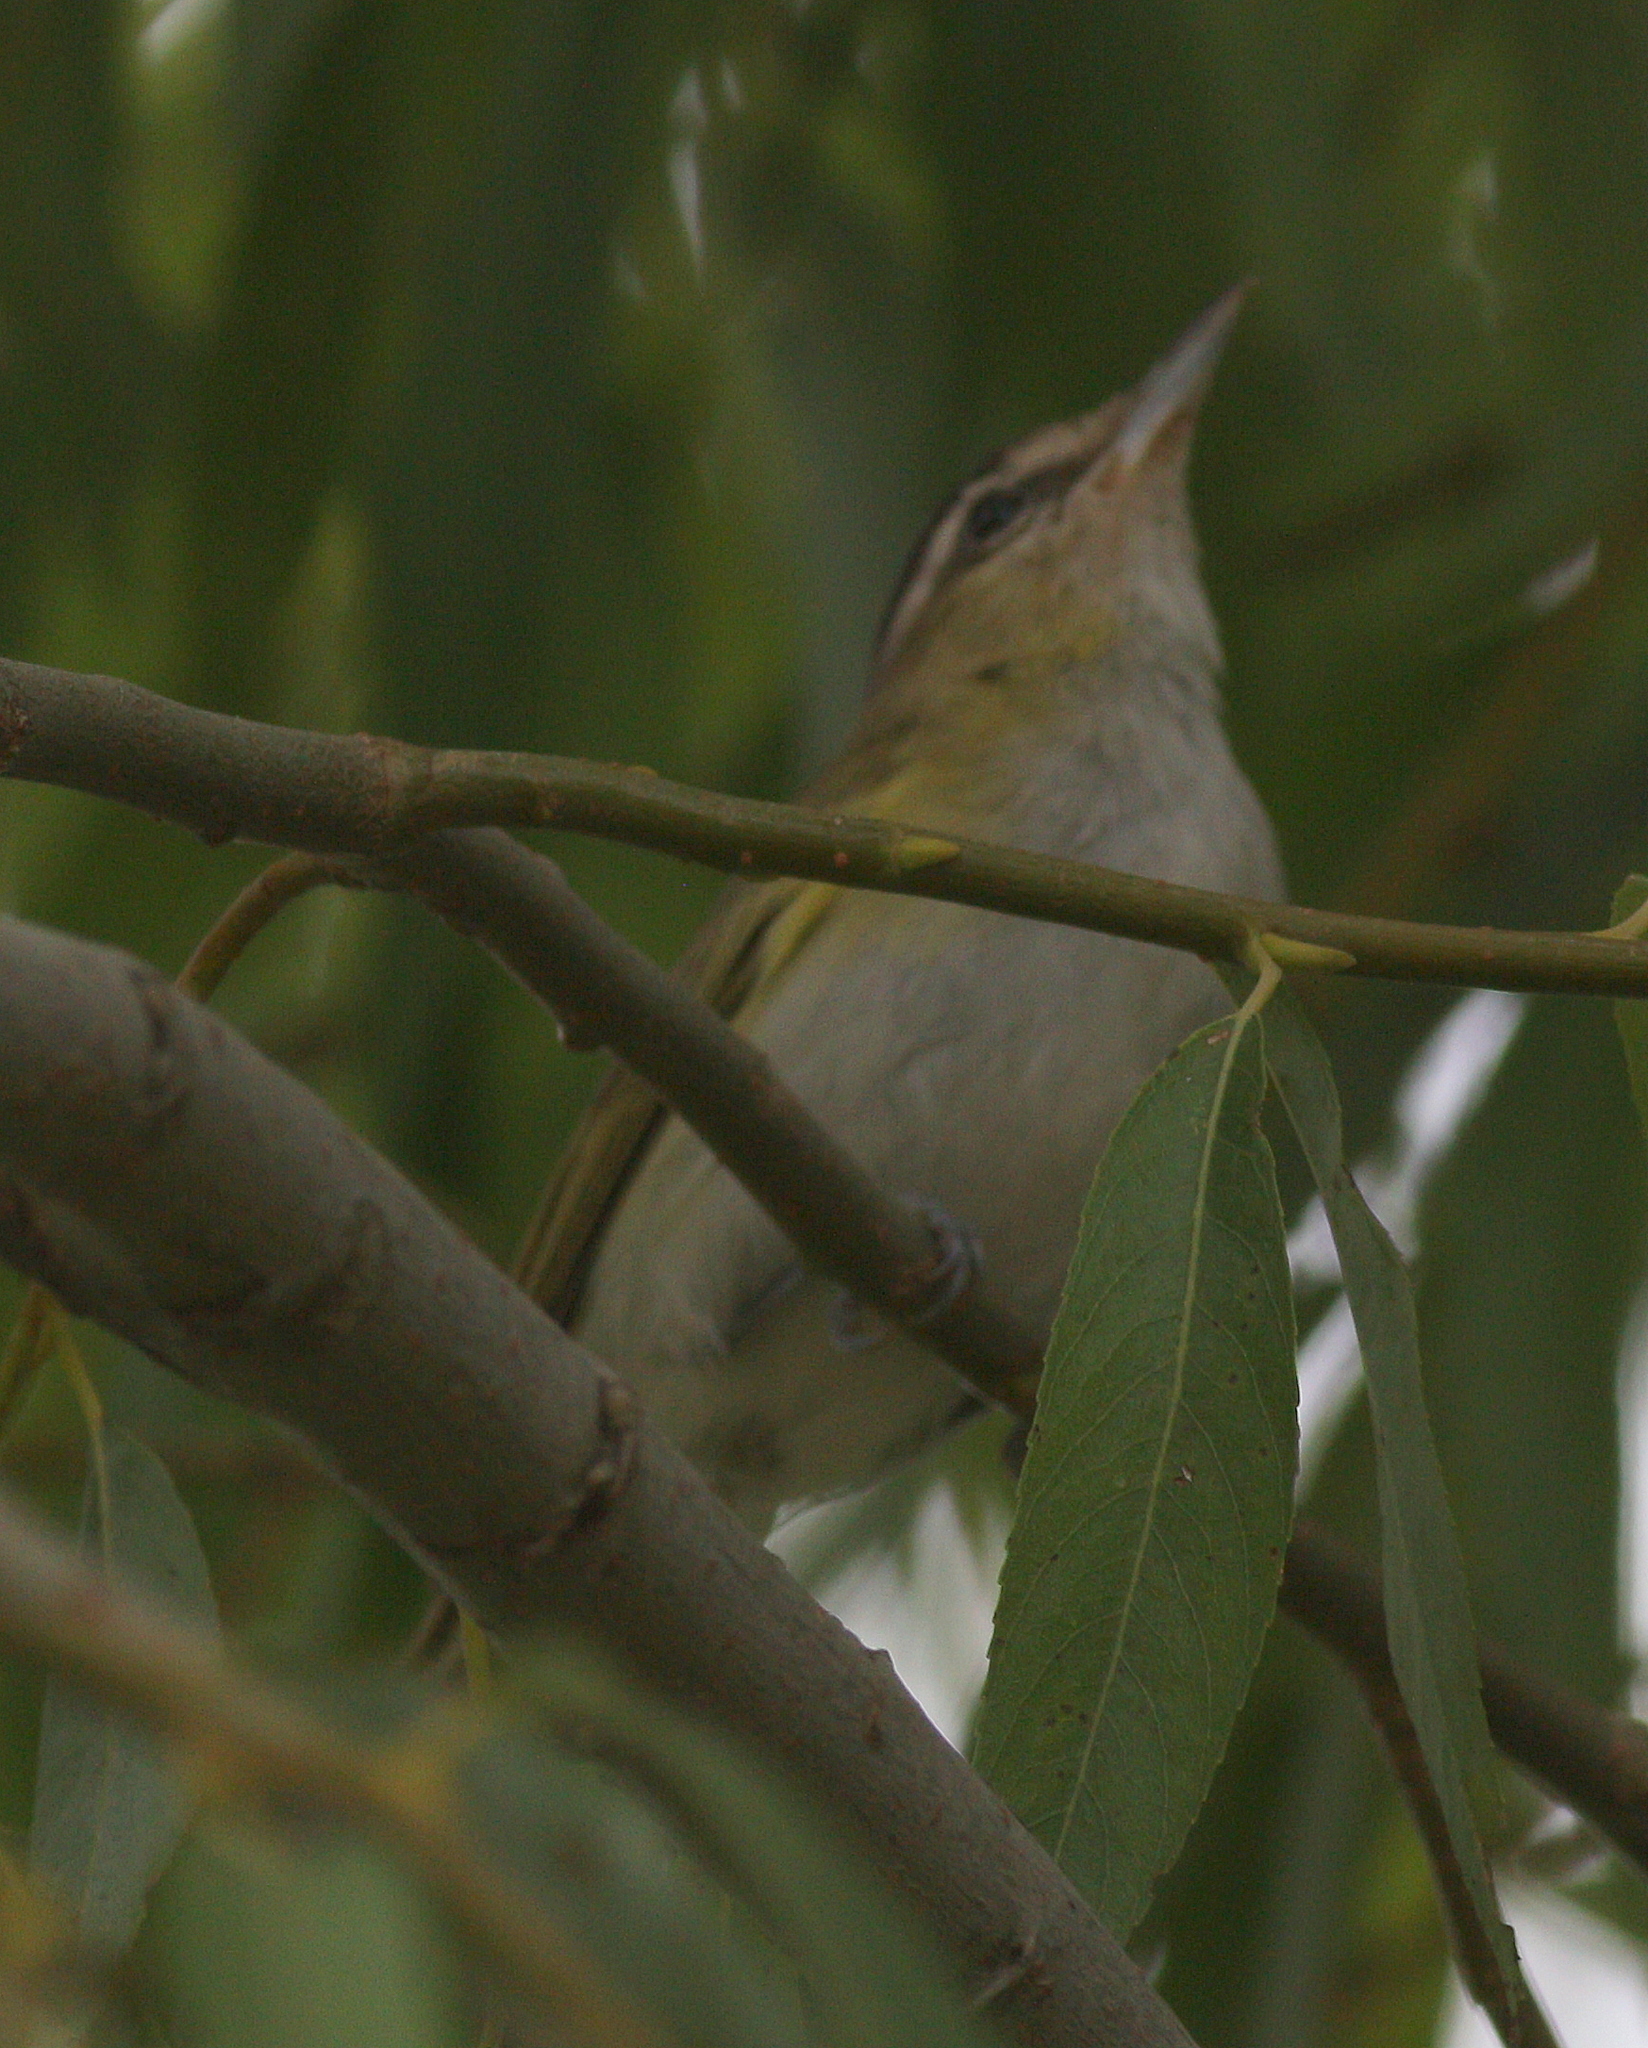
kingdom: Animalia
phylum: Chordata
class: Aves
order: Passeriformes
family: Vireonidae
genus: Vireo
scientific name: Vireo olivaceus
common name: Red-eyed vireo
